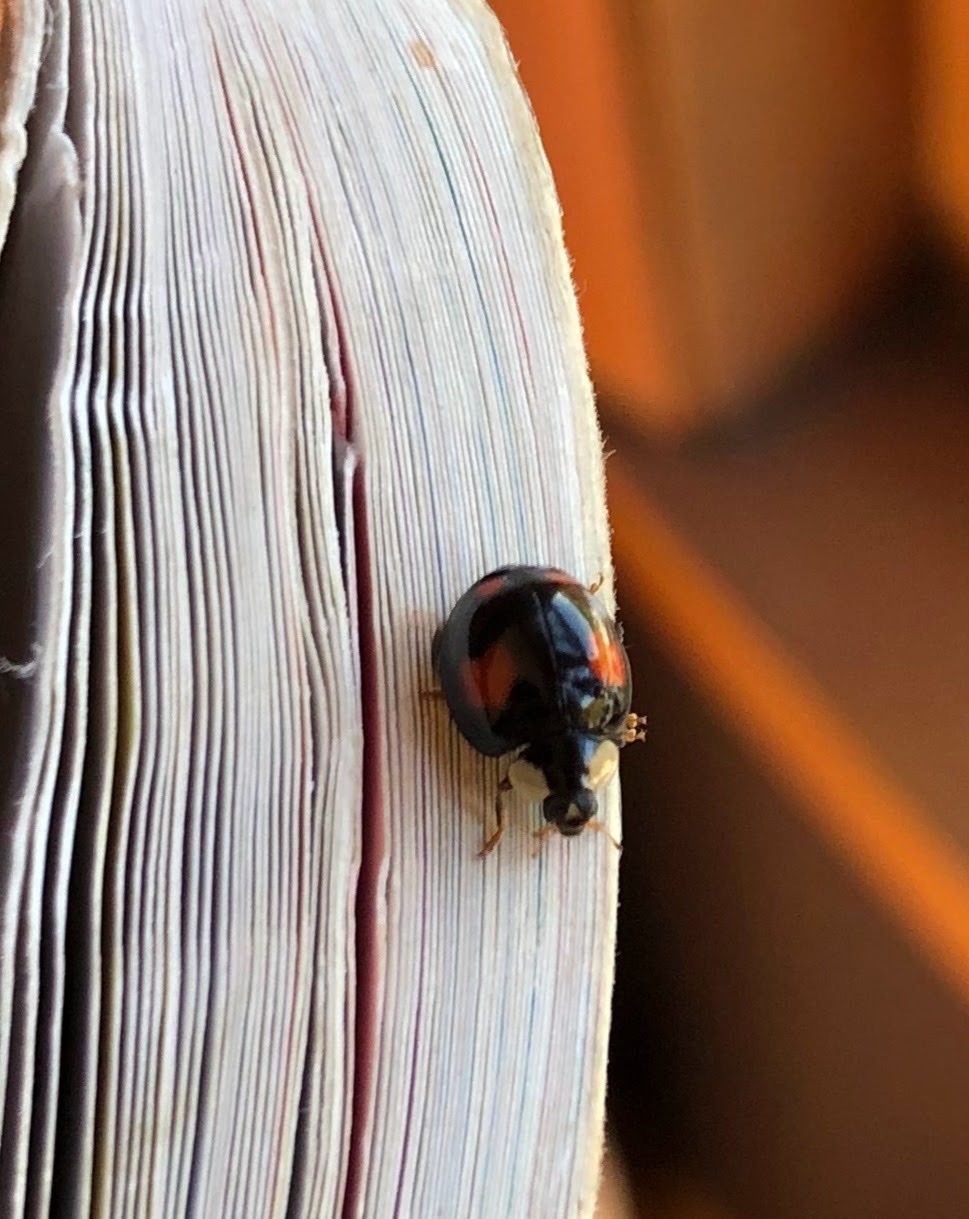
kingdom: Animalia
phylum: Arthropoda
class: Insecta
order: Coleoptera
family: Coccinellidae
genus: Harmonia
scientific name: Harmonia axyridis
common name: Harlequin ladybird
